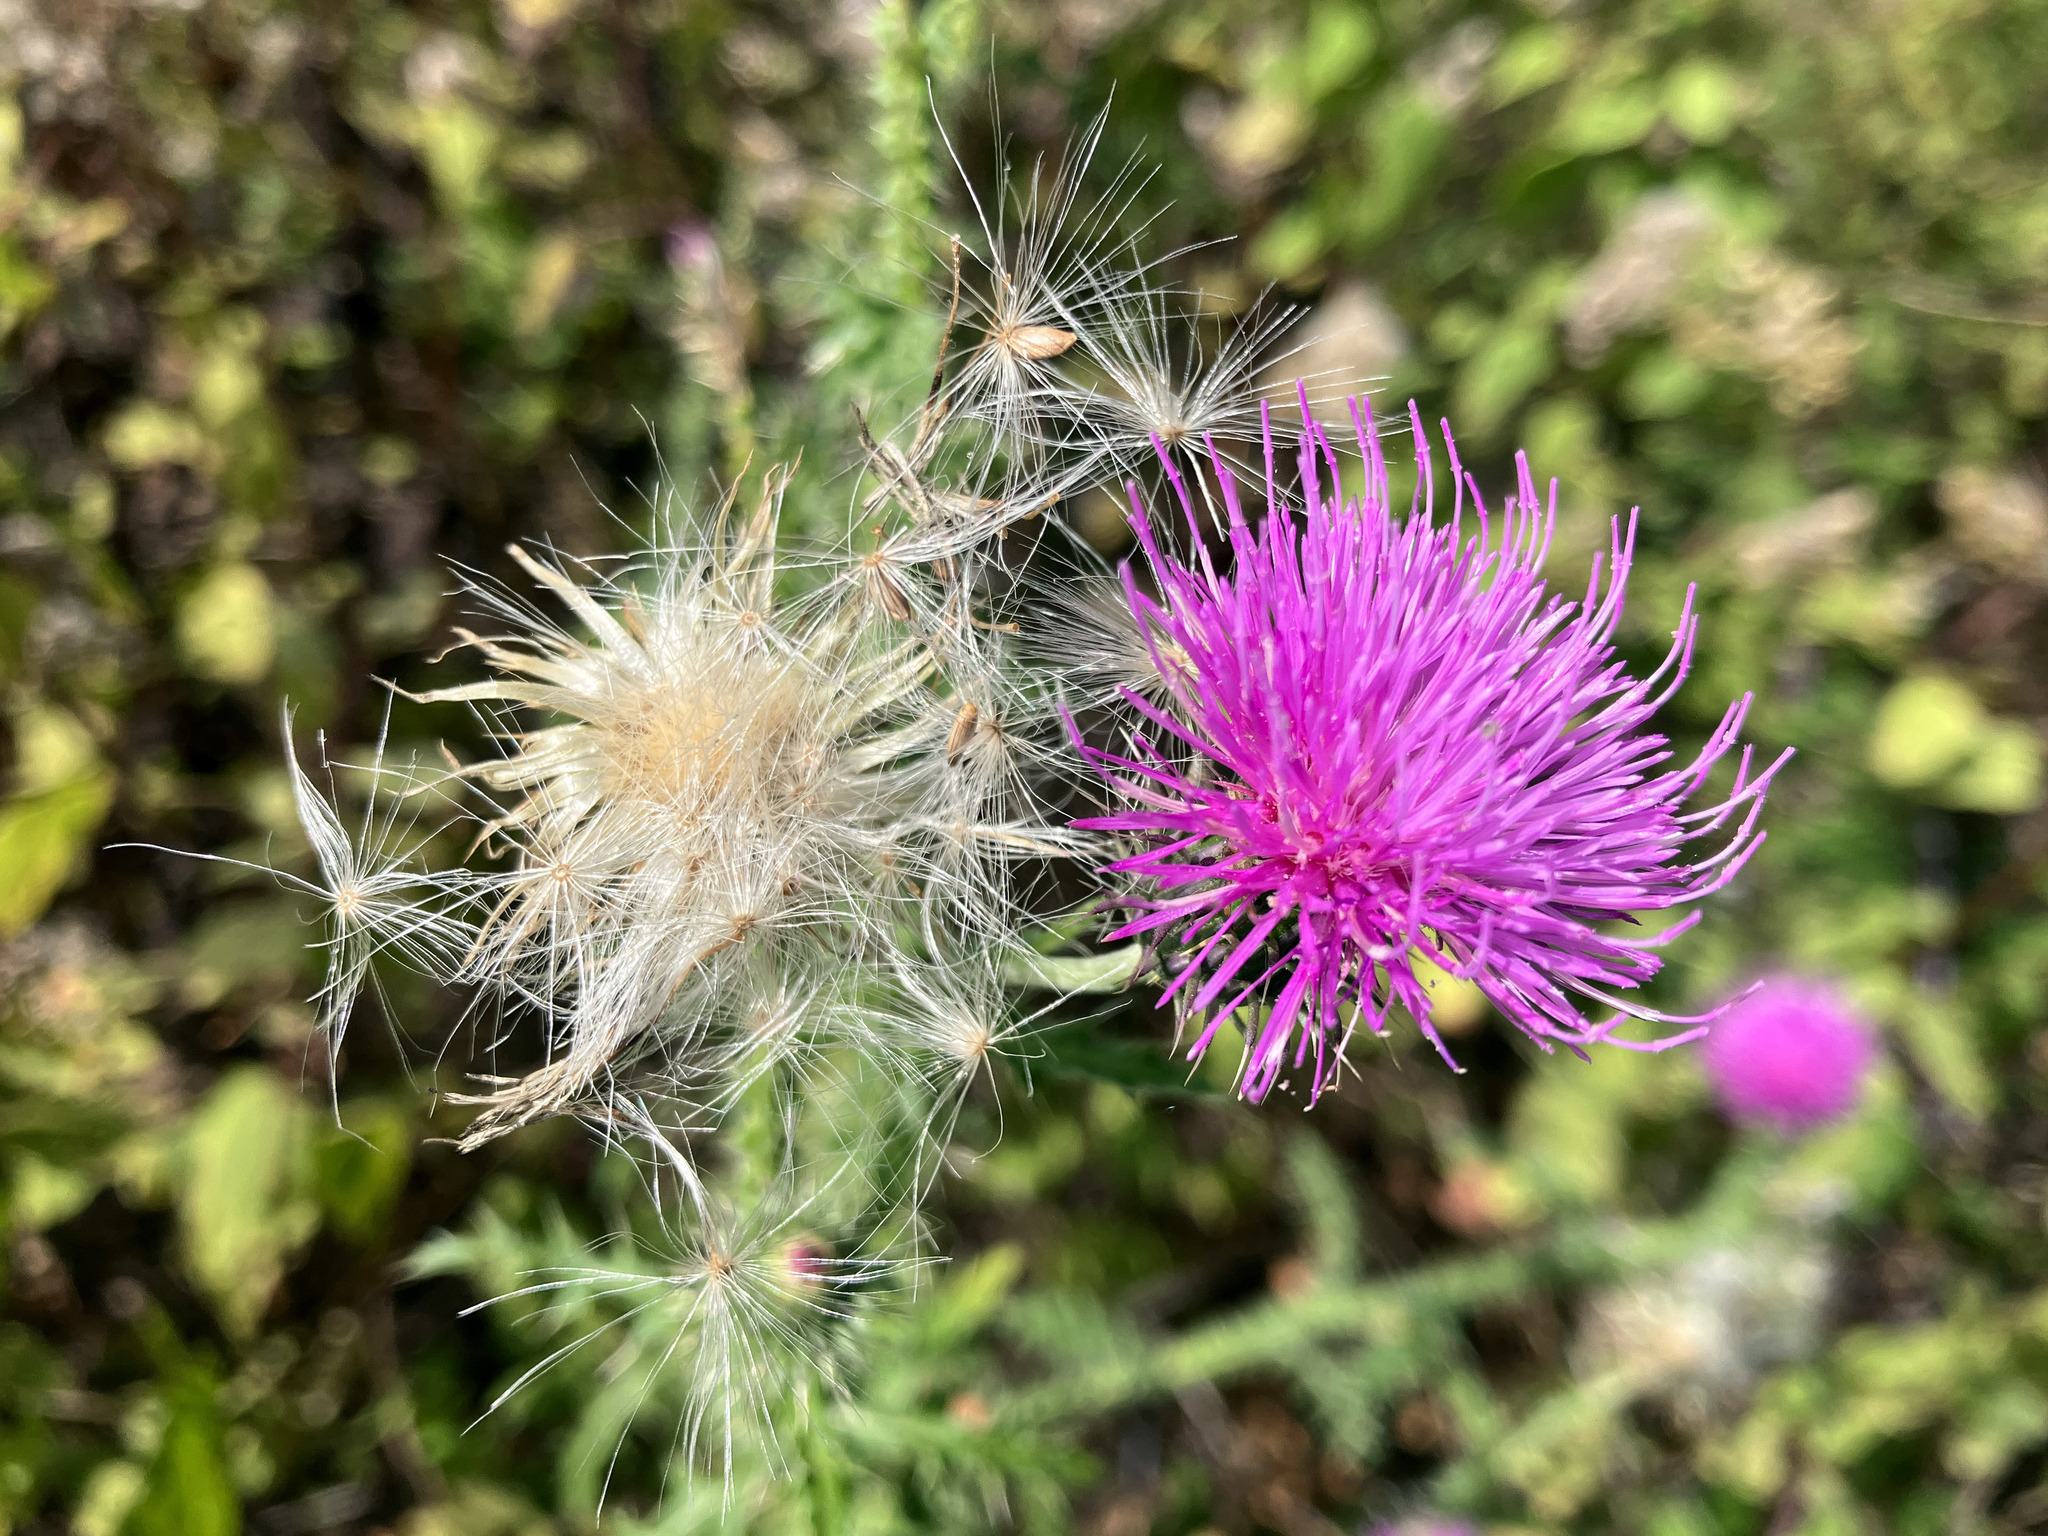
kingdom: Plantae
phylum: Tracheophyta
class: Magnoliopsida
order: Asterales
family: Asteraceae
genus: Carduus
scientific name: Carduus acanthoides
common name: Plumeless thistle
